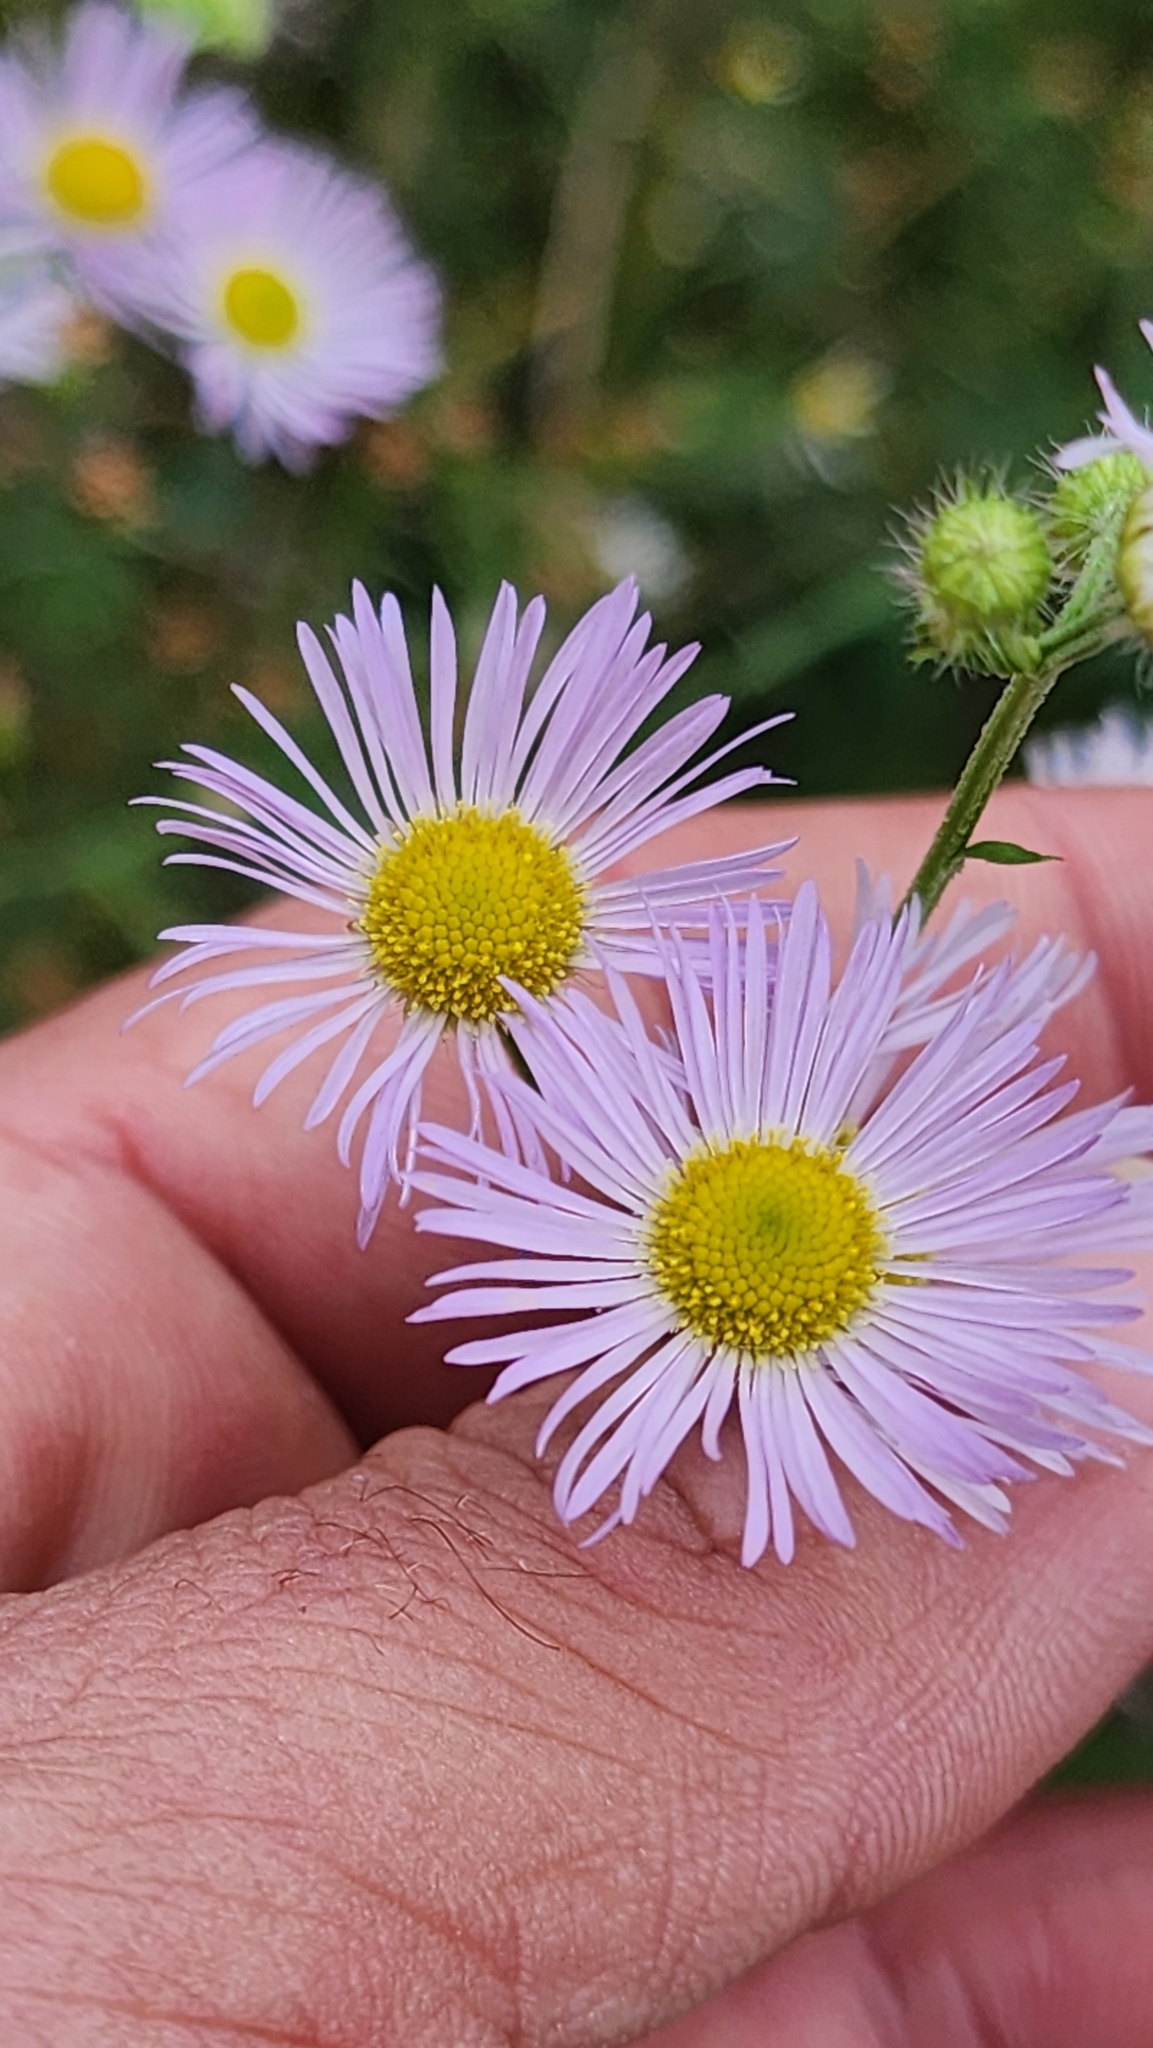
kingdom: Plantae
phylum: Tracheophyta
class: Magnoliopsida
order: Asterales
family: Asteraceae
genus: Erigeron
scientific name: Erigeron philadelphicus
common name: Robin's-plantain
